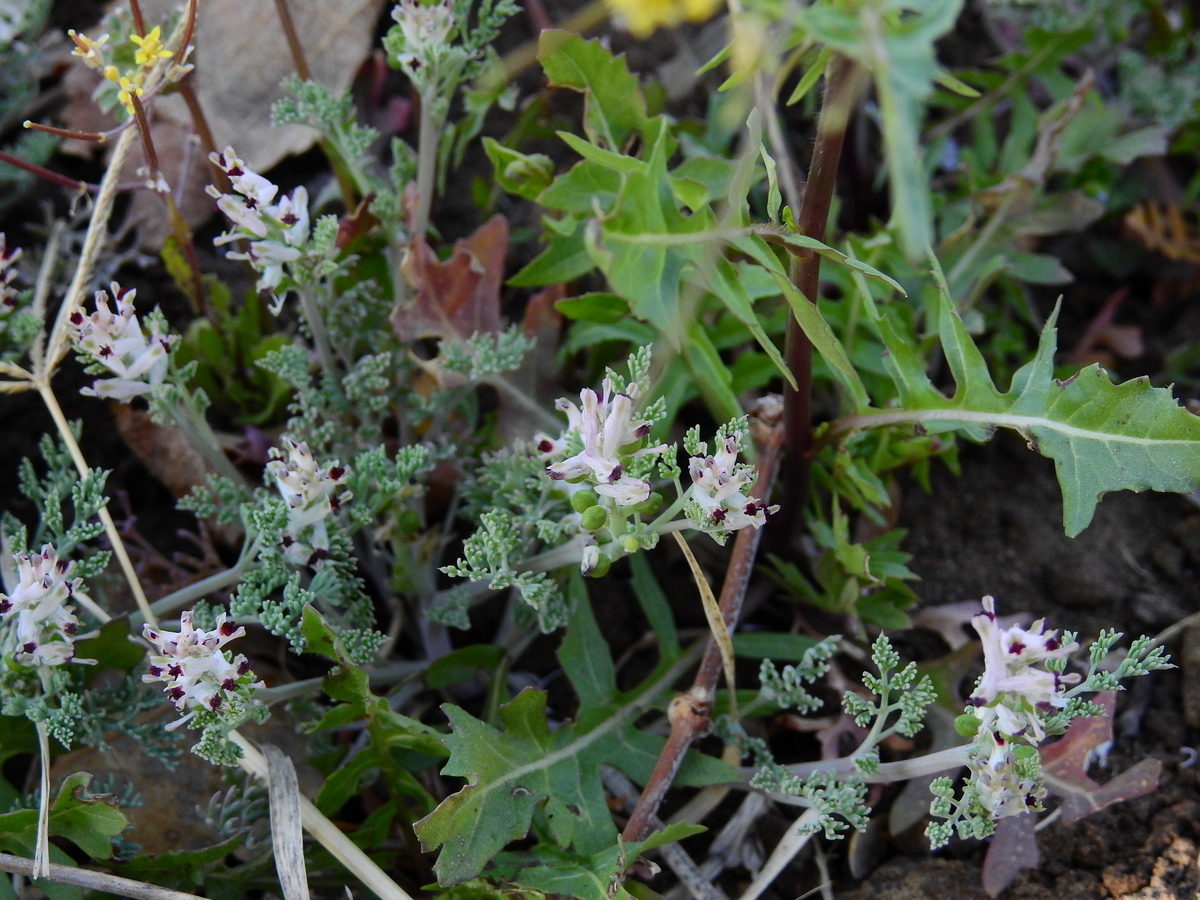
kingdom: Plantae
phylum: Tracheophyta
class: Magnoliopsida
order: Ranunculales
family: Papaveraceae
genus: Fumaria
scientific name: Fumaria parviflora
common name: Fine-leaved fumitory
